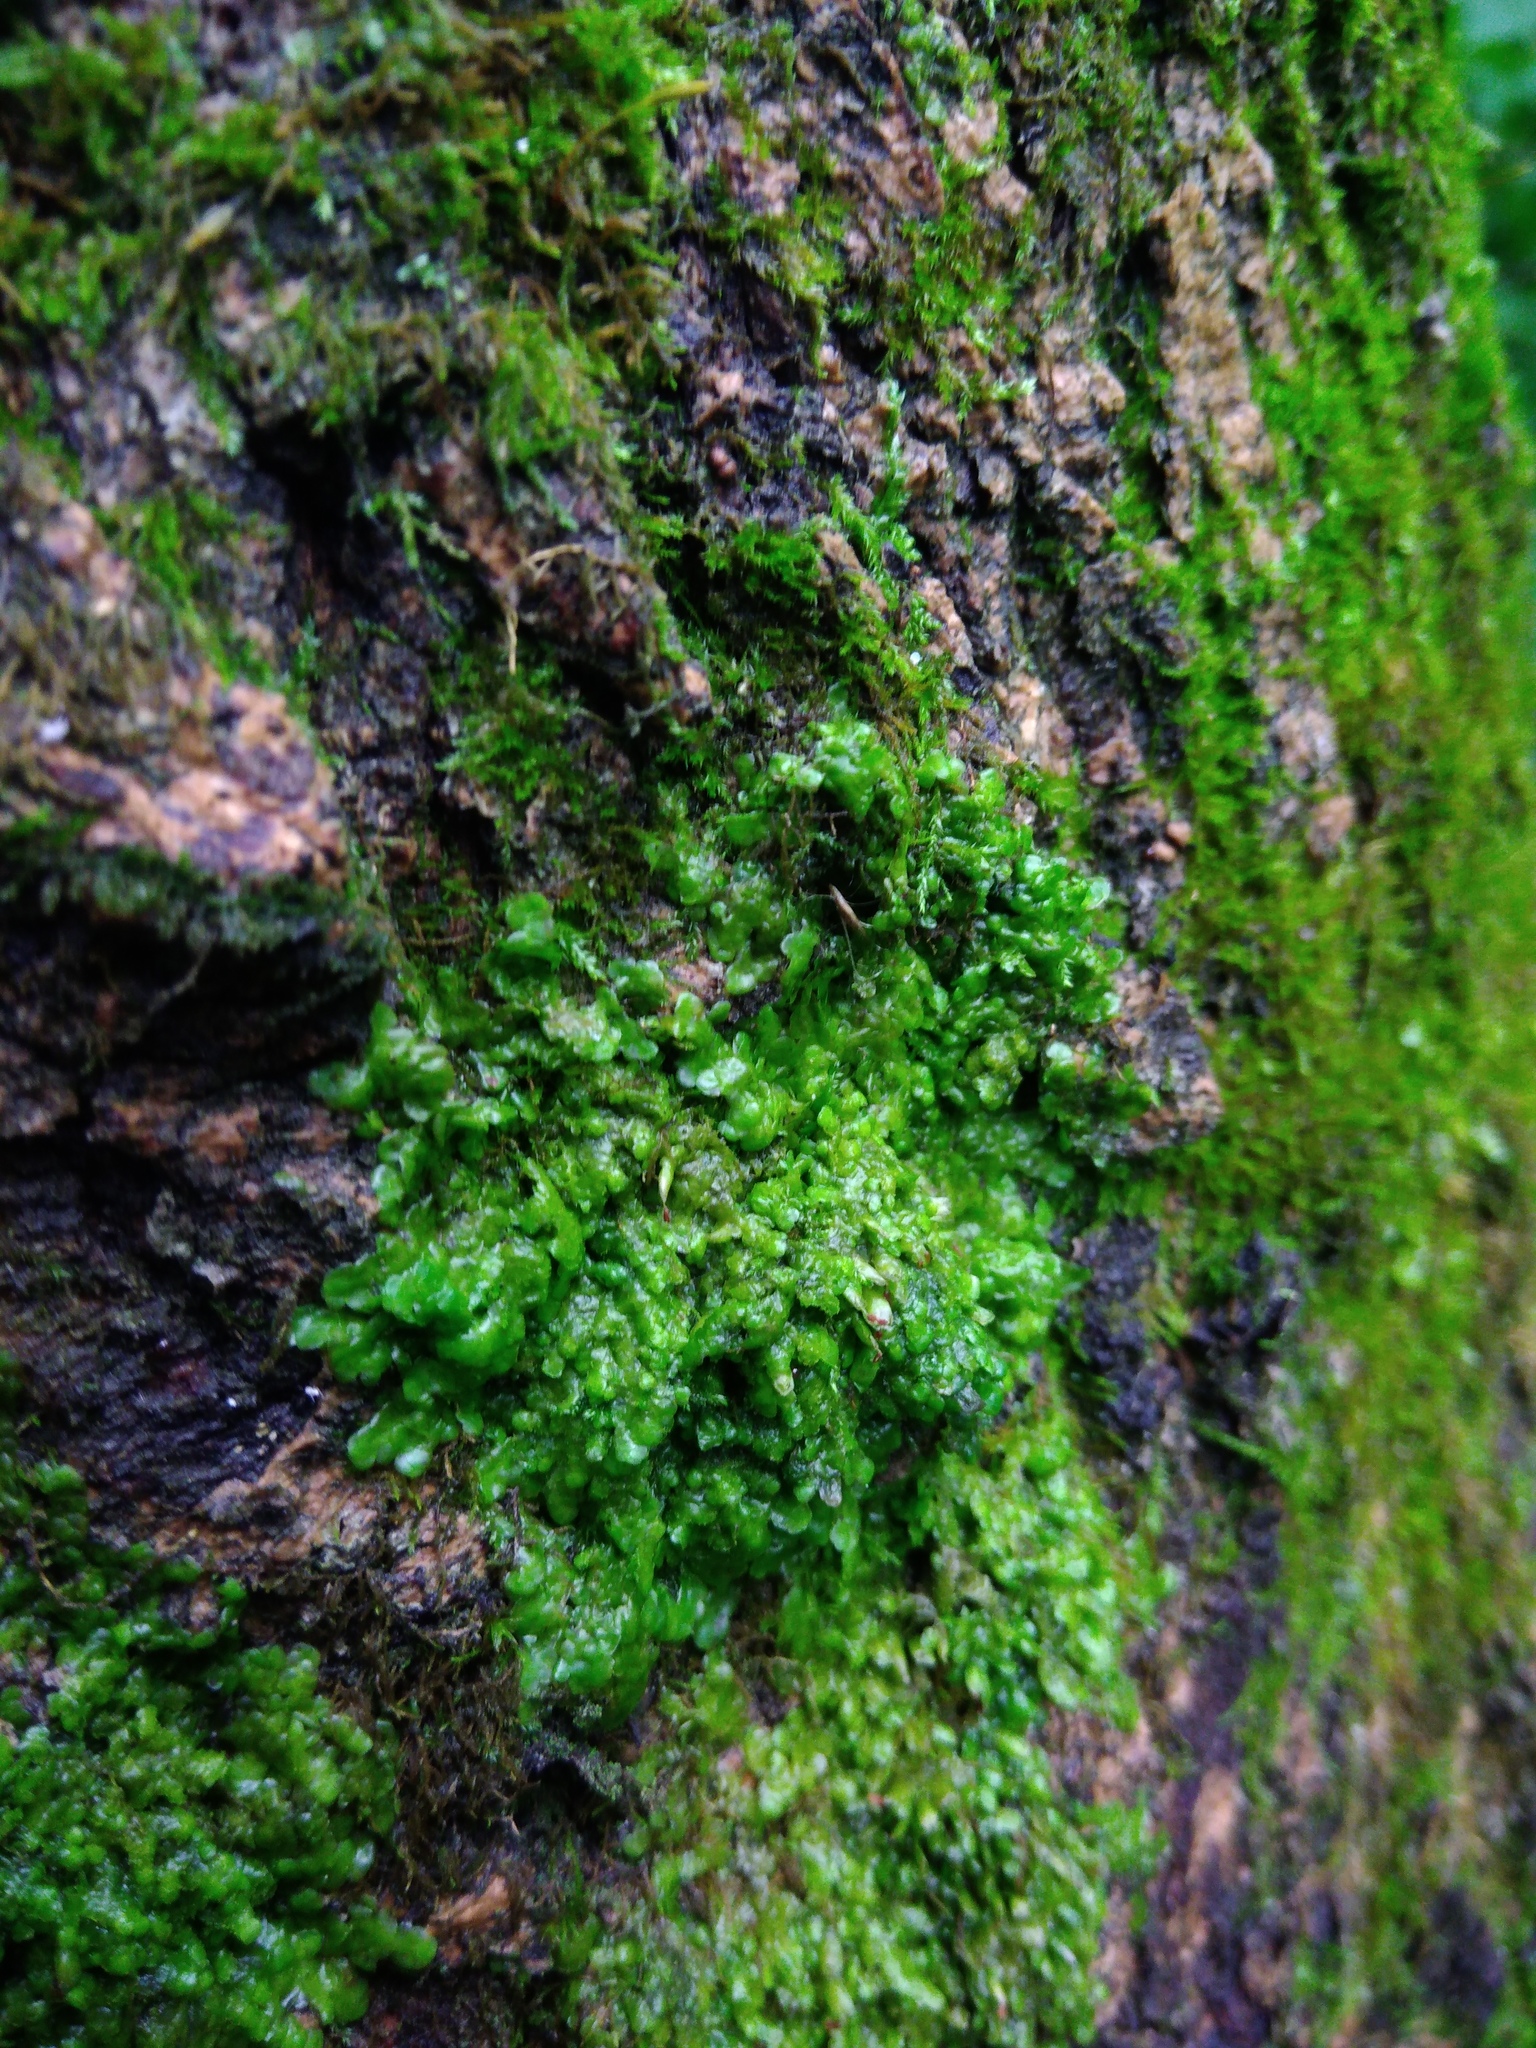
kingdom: Plantae
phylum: Marchantiophyta
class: Jungermanniopsida
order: Porellales
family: Radulaceae
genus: Radula
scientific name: Radula complanata
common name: Flat-leaved scalewort
